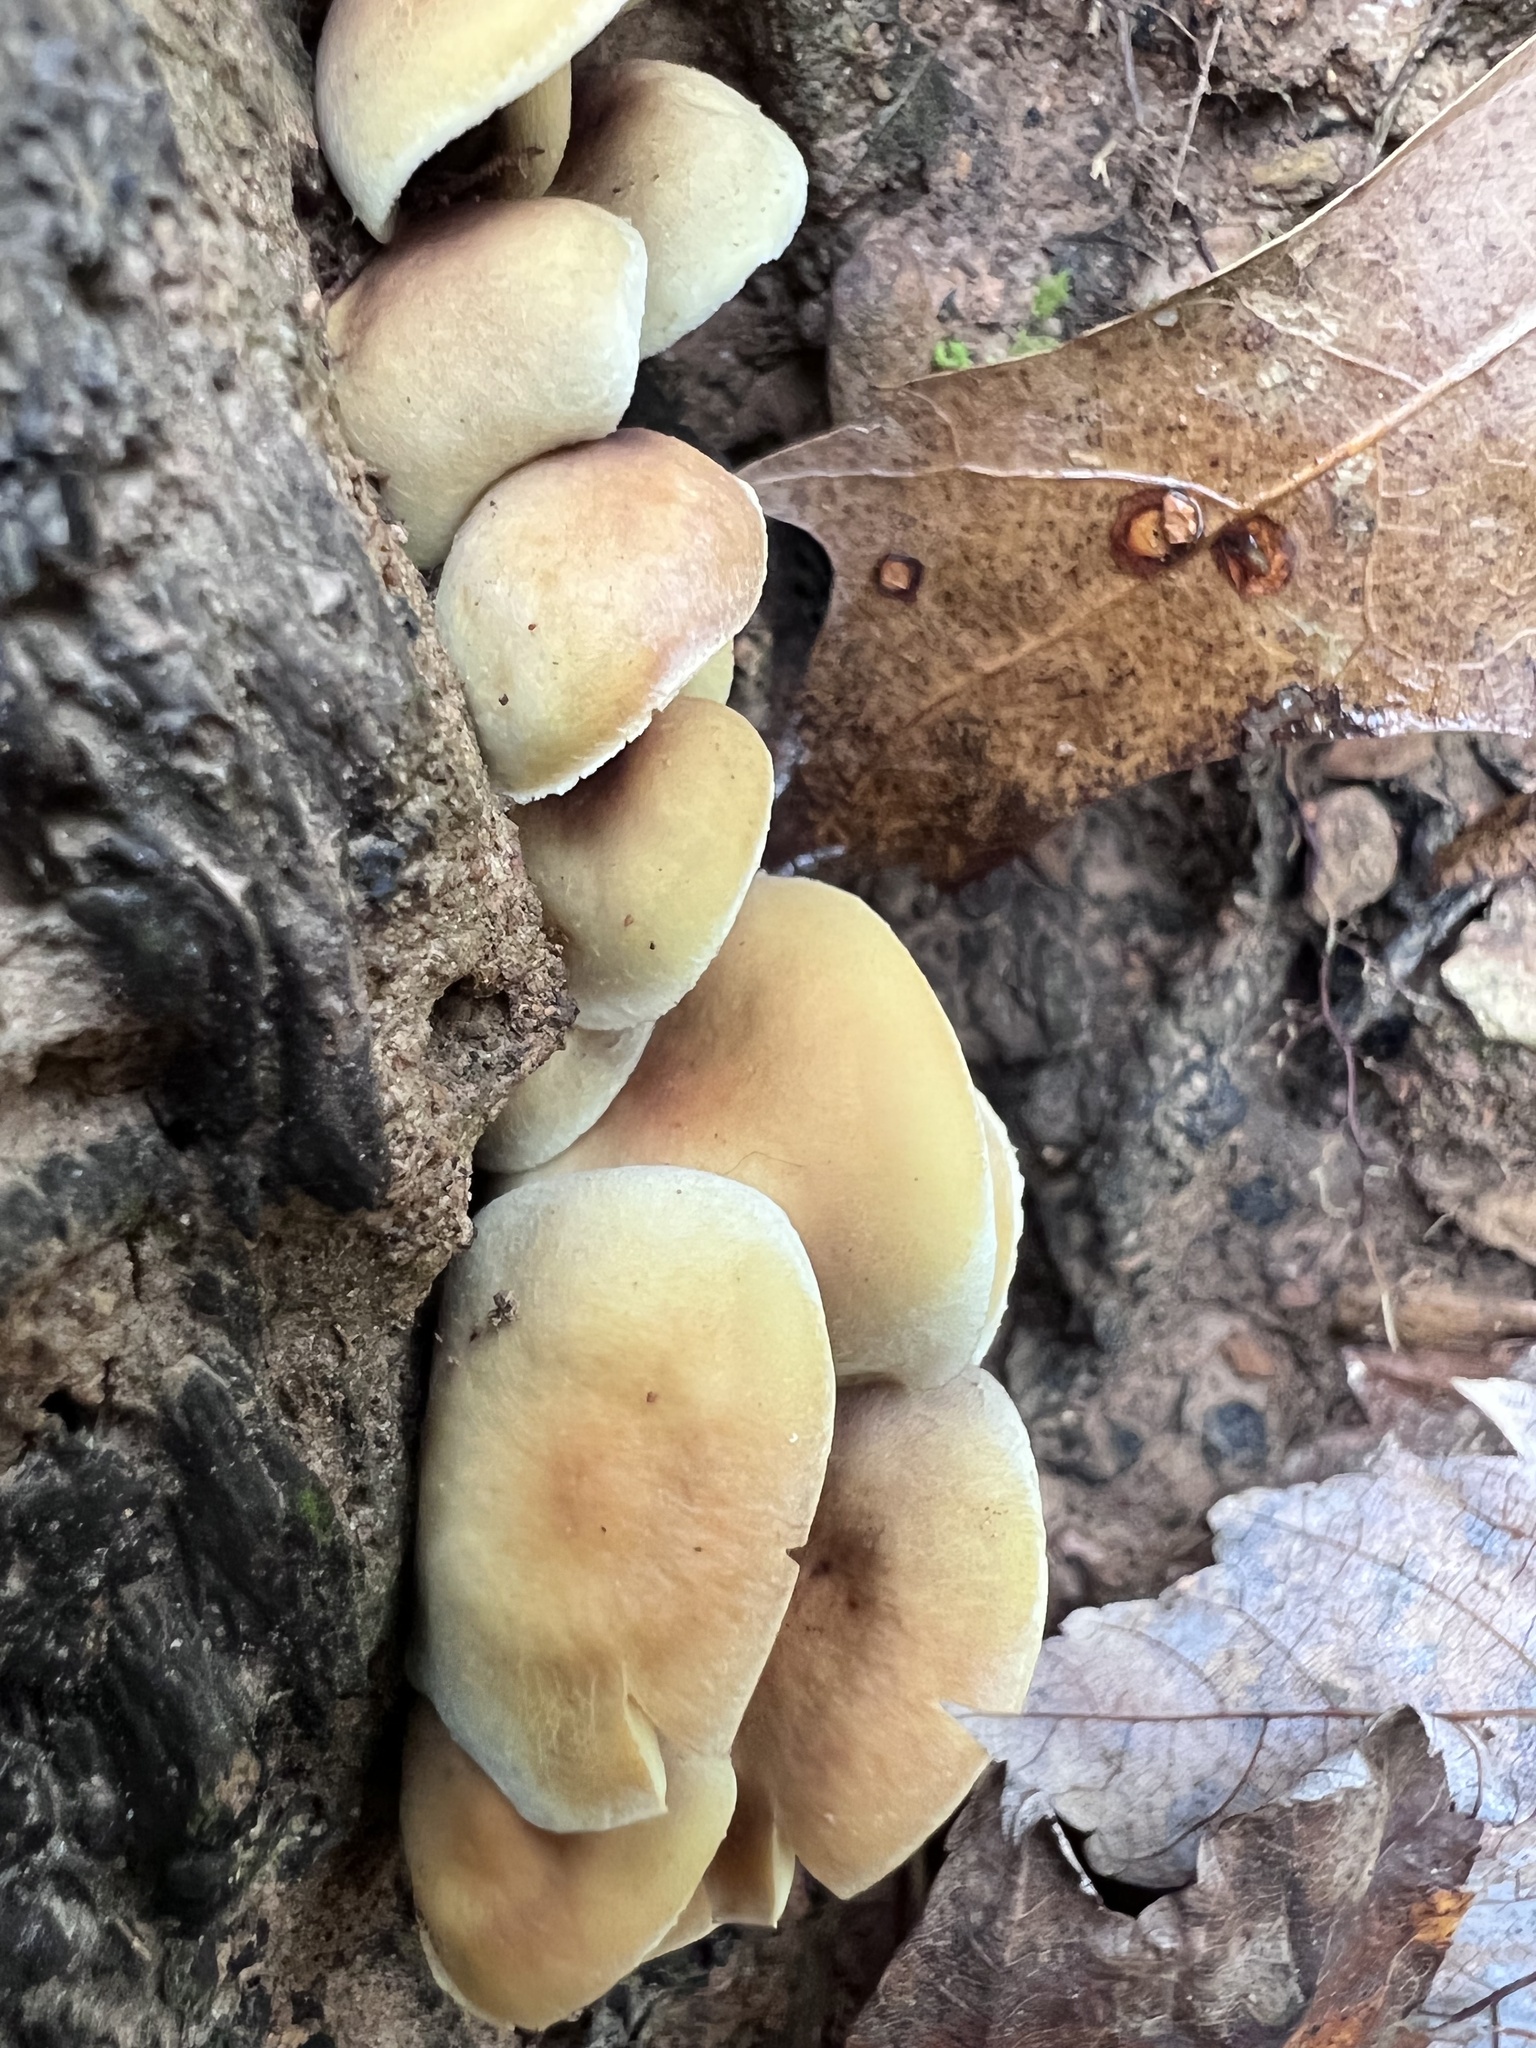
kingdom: Fungi
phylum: Basidiomycota
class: Agaricomycetes
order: Agaricales
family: Strophariaceae
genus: Hypholoma
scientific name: Hypholoma fasciculare
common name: Sulphur tuft
